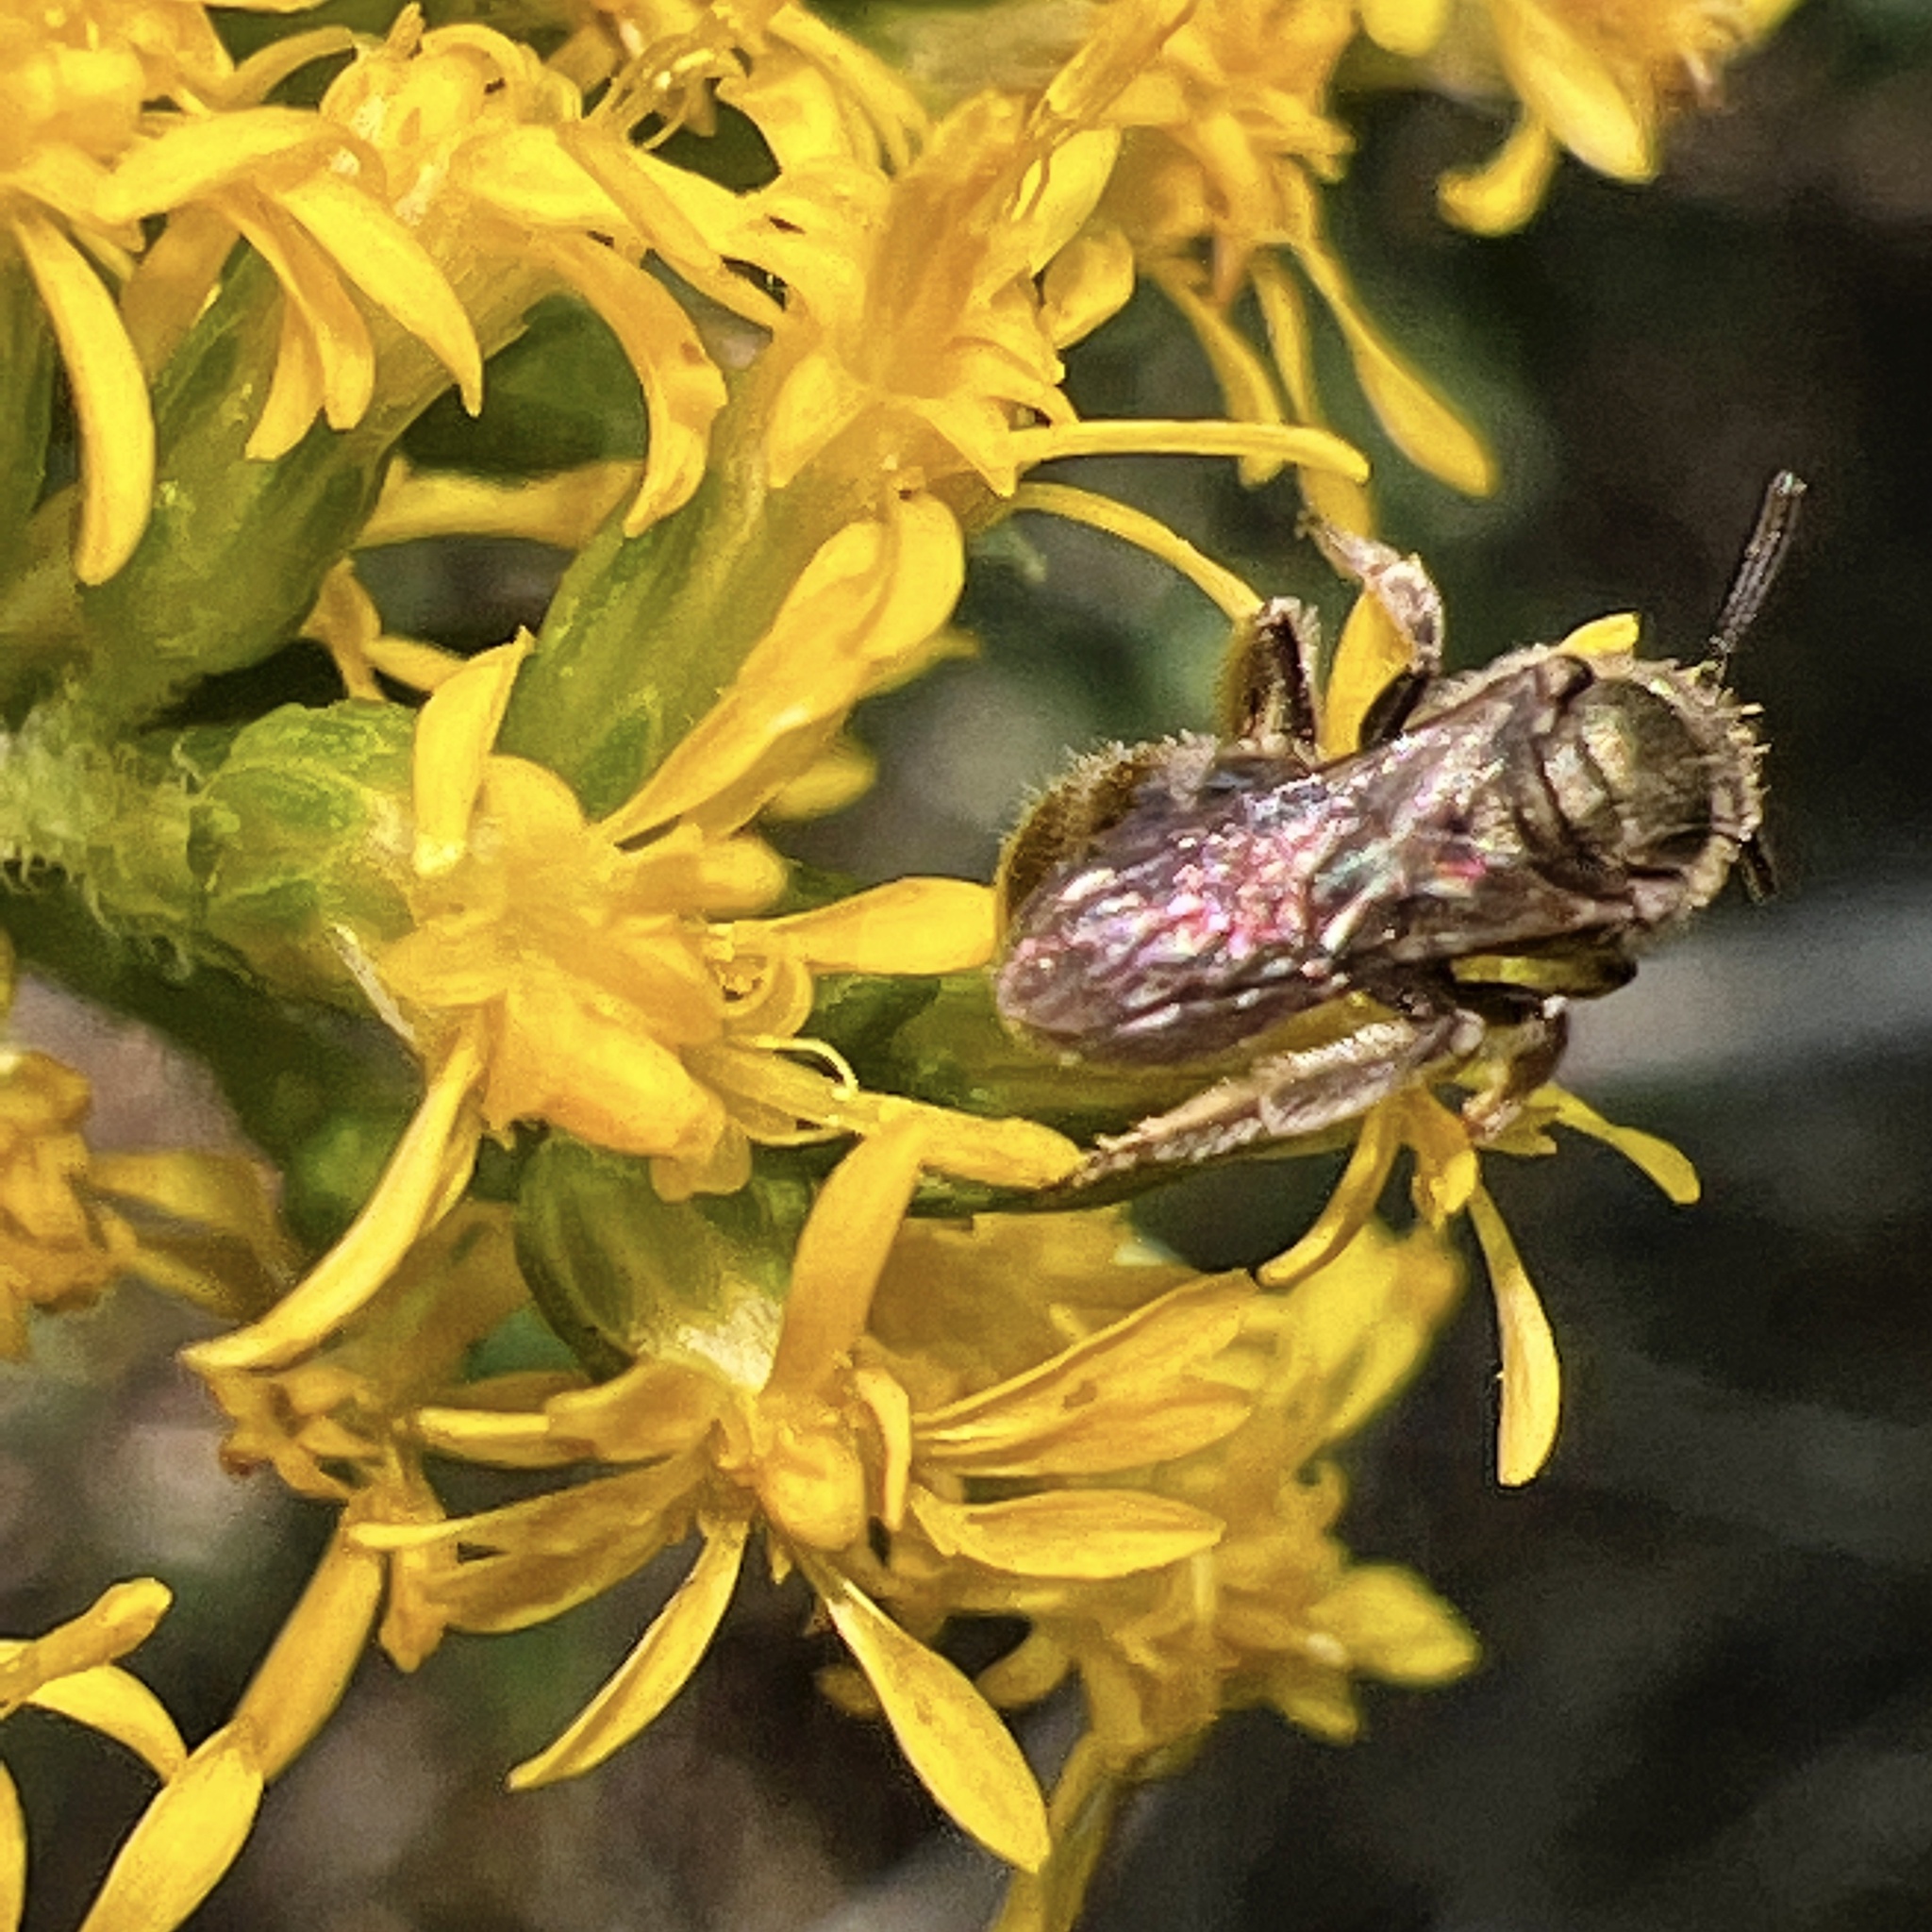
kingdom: Animalia
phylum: Arthropoda
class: Insecta
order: Hymenoptera
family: Halictidae
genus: Dialictus
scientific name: Dialictus
